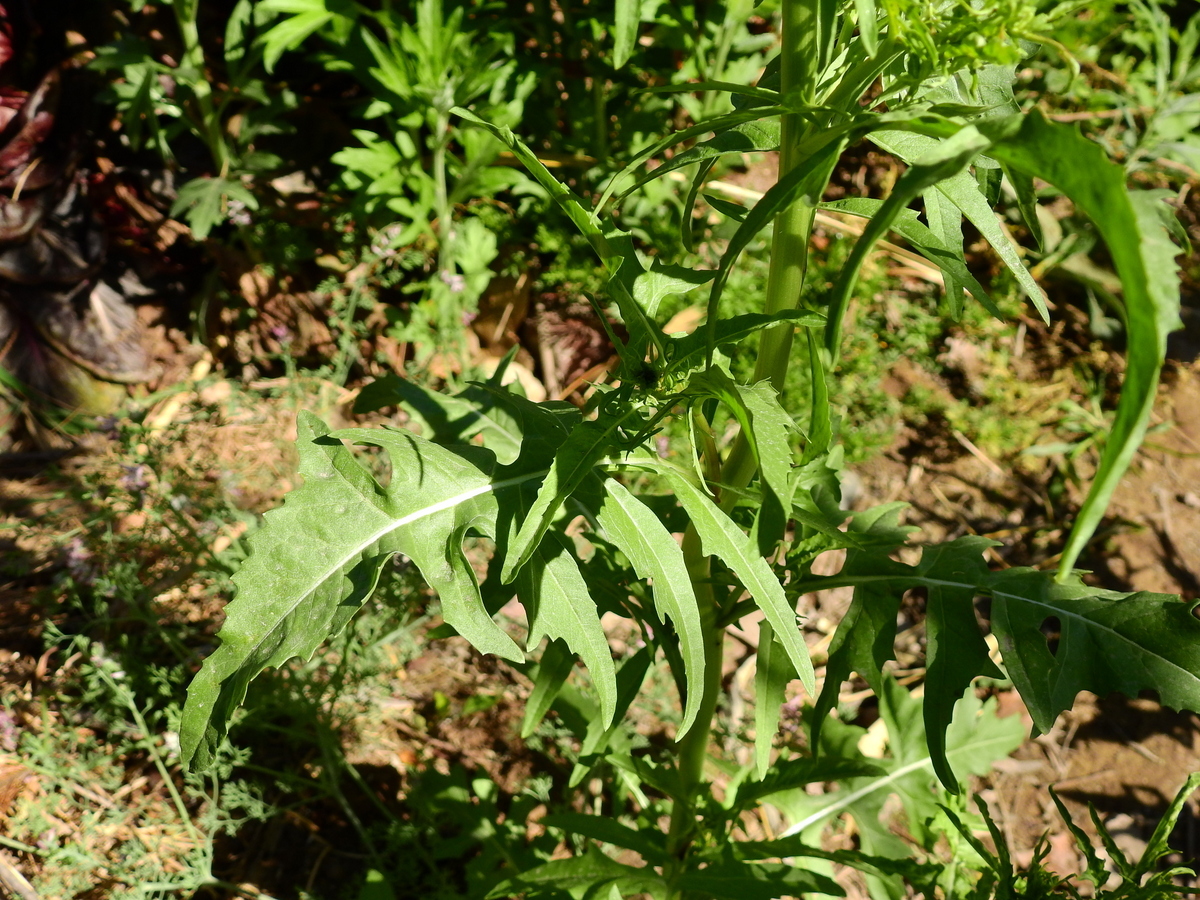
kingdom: Plantae
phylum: Tracheophyta
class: Magnoliopsida
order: Brassicales
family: Brassicaceae
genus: Sisymbrium
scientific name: Sisymbrium irio
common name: London rocket
